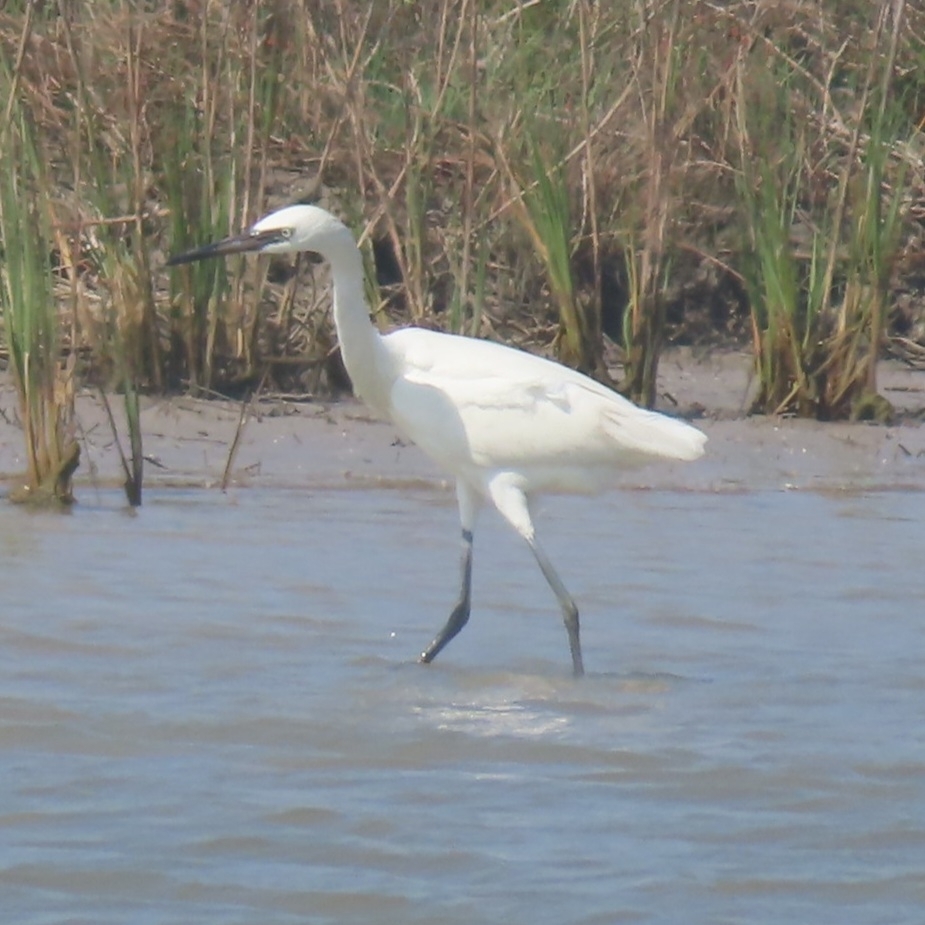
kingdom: Animalia
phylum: Chordata
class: Aves
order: Pelecaniformes
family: Ardeidae
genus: Egretta
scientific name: Egretta rufescens
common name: Reddish egret
